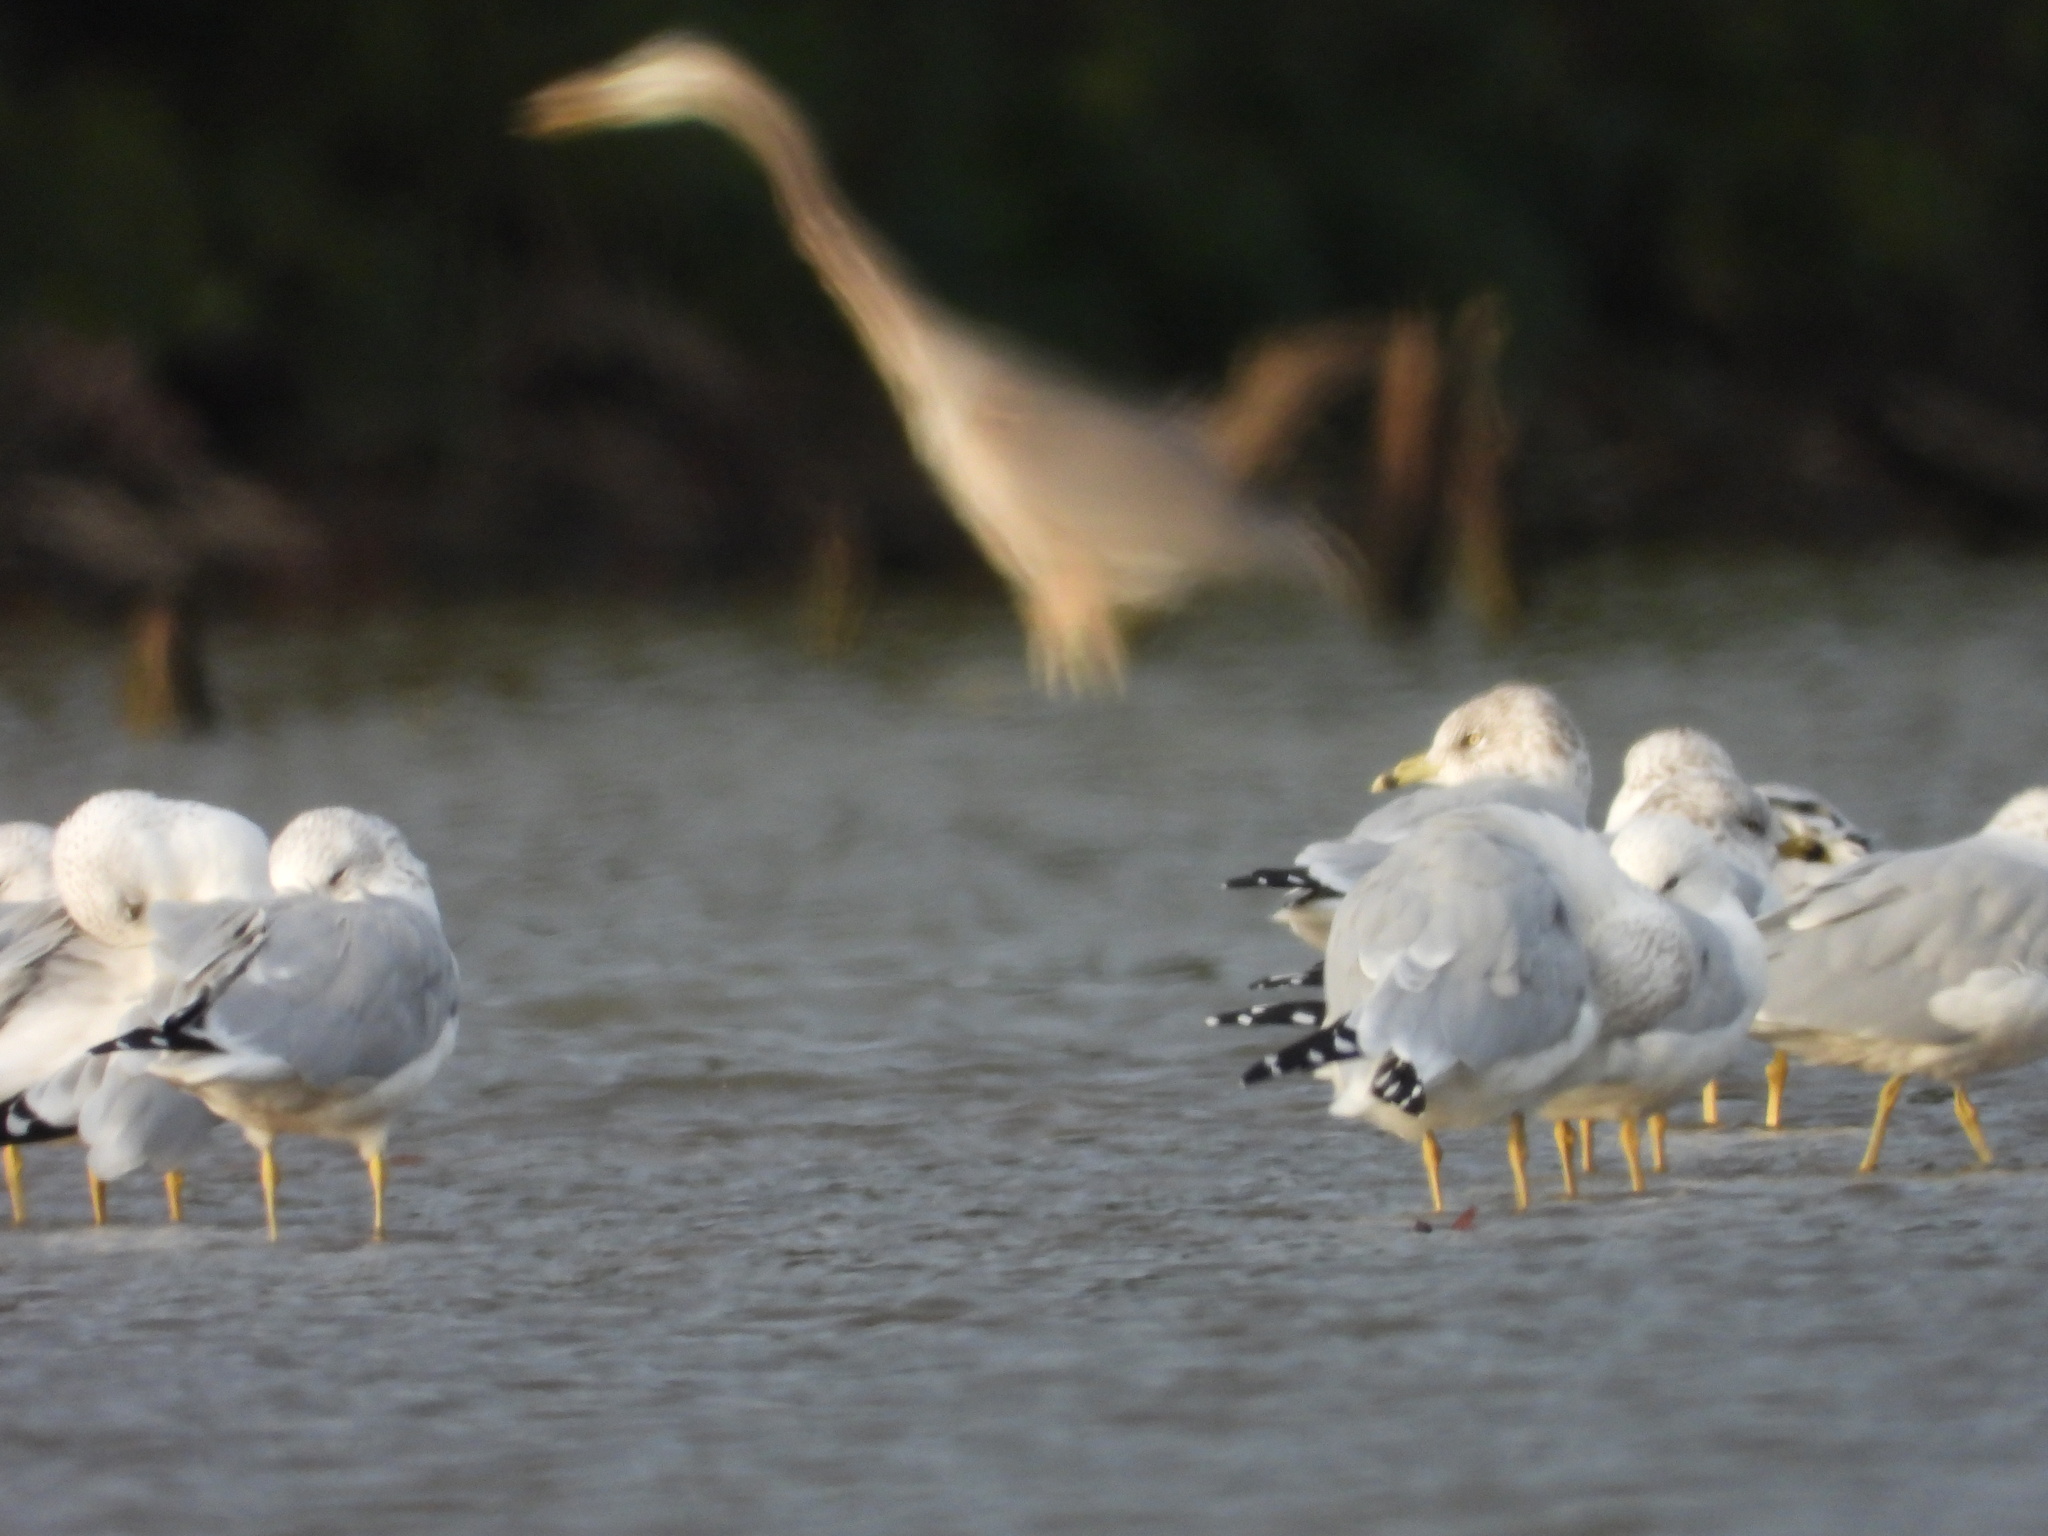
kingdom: Animalia
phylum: Chordata
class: Aves
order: Charadriiformes
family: Laridae
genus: Larus
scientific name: Larus delawarensis
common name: Ring-billed gull
